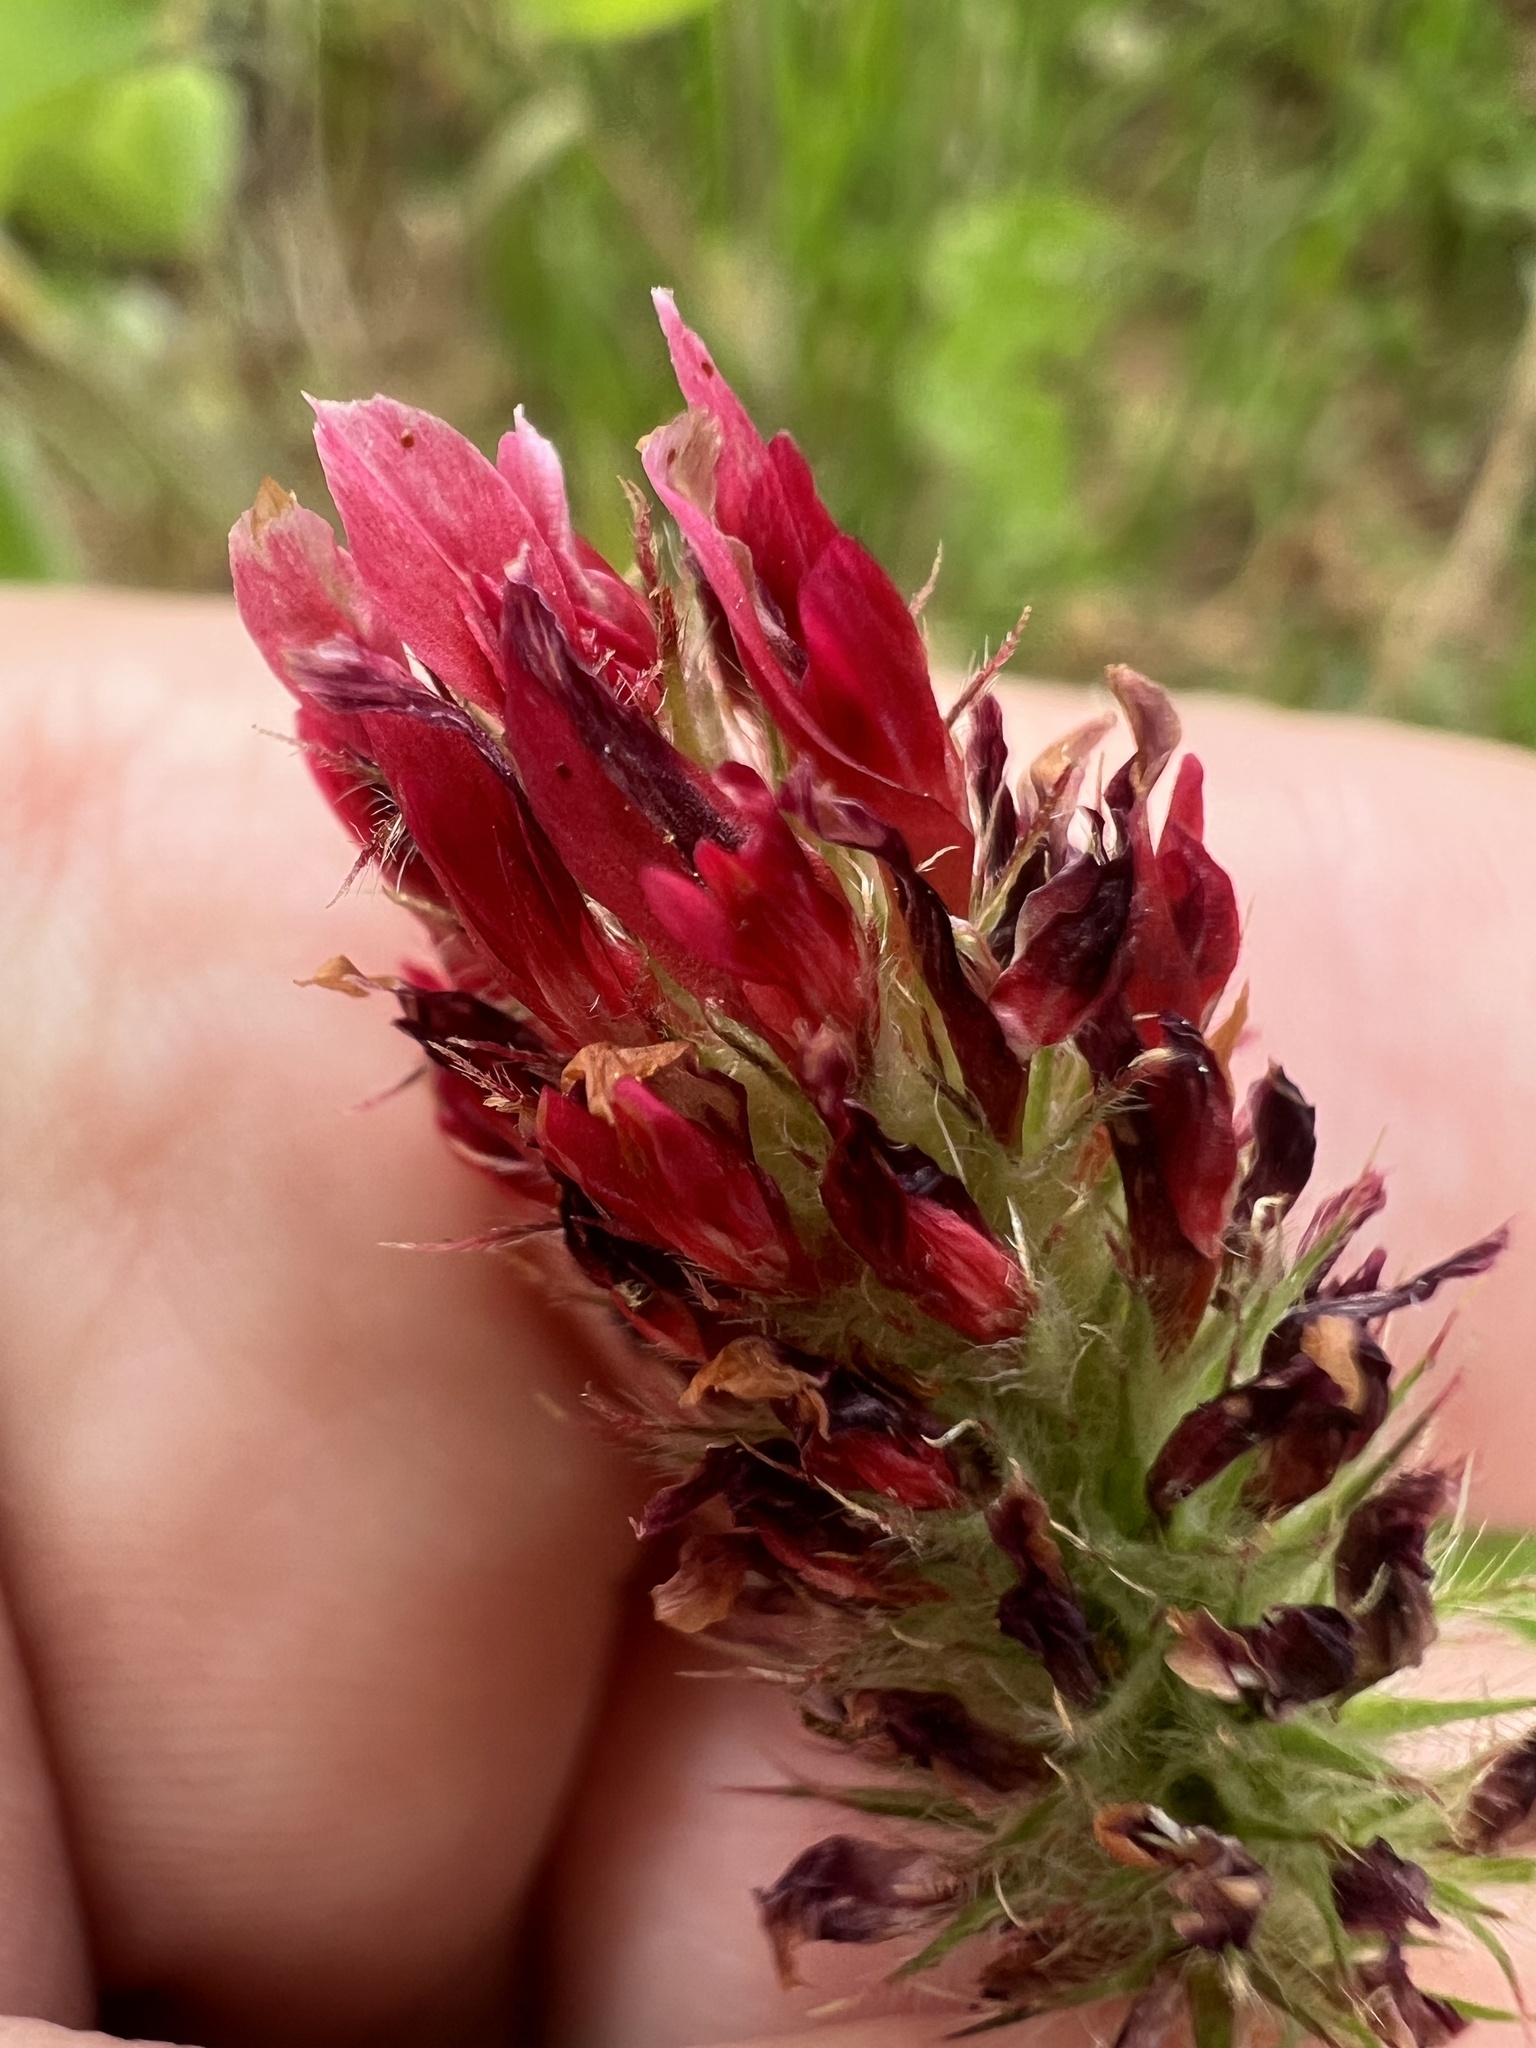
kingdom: Plantae
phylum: Tracheophyta
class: Magnoliopsida
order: Fabales
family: Fabaceae
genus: Trifolium
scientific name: Trifolium incarnatum
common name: Crimson clover
